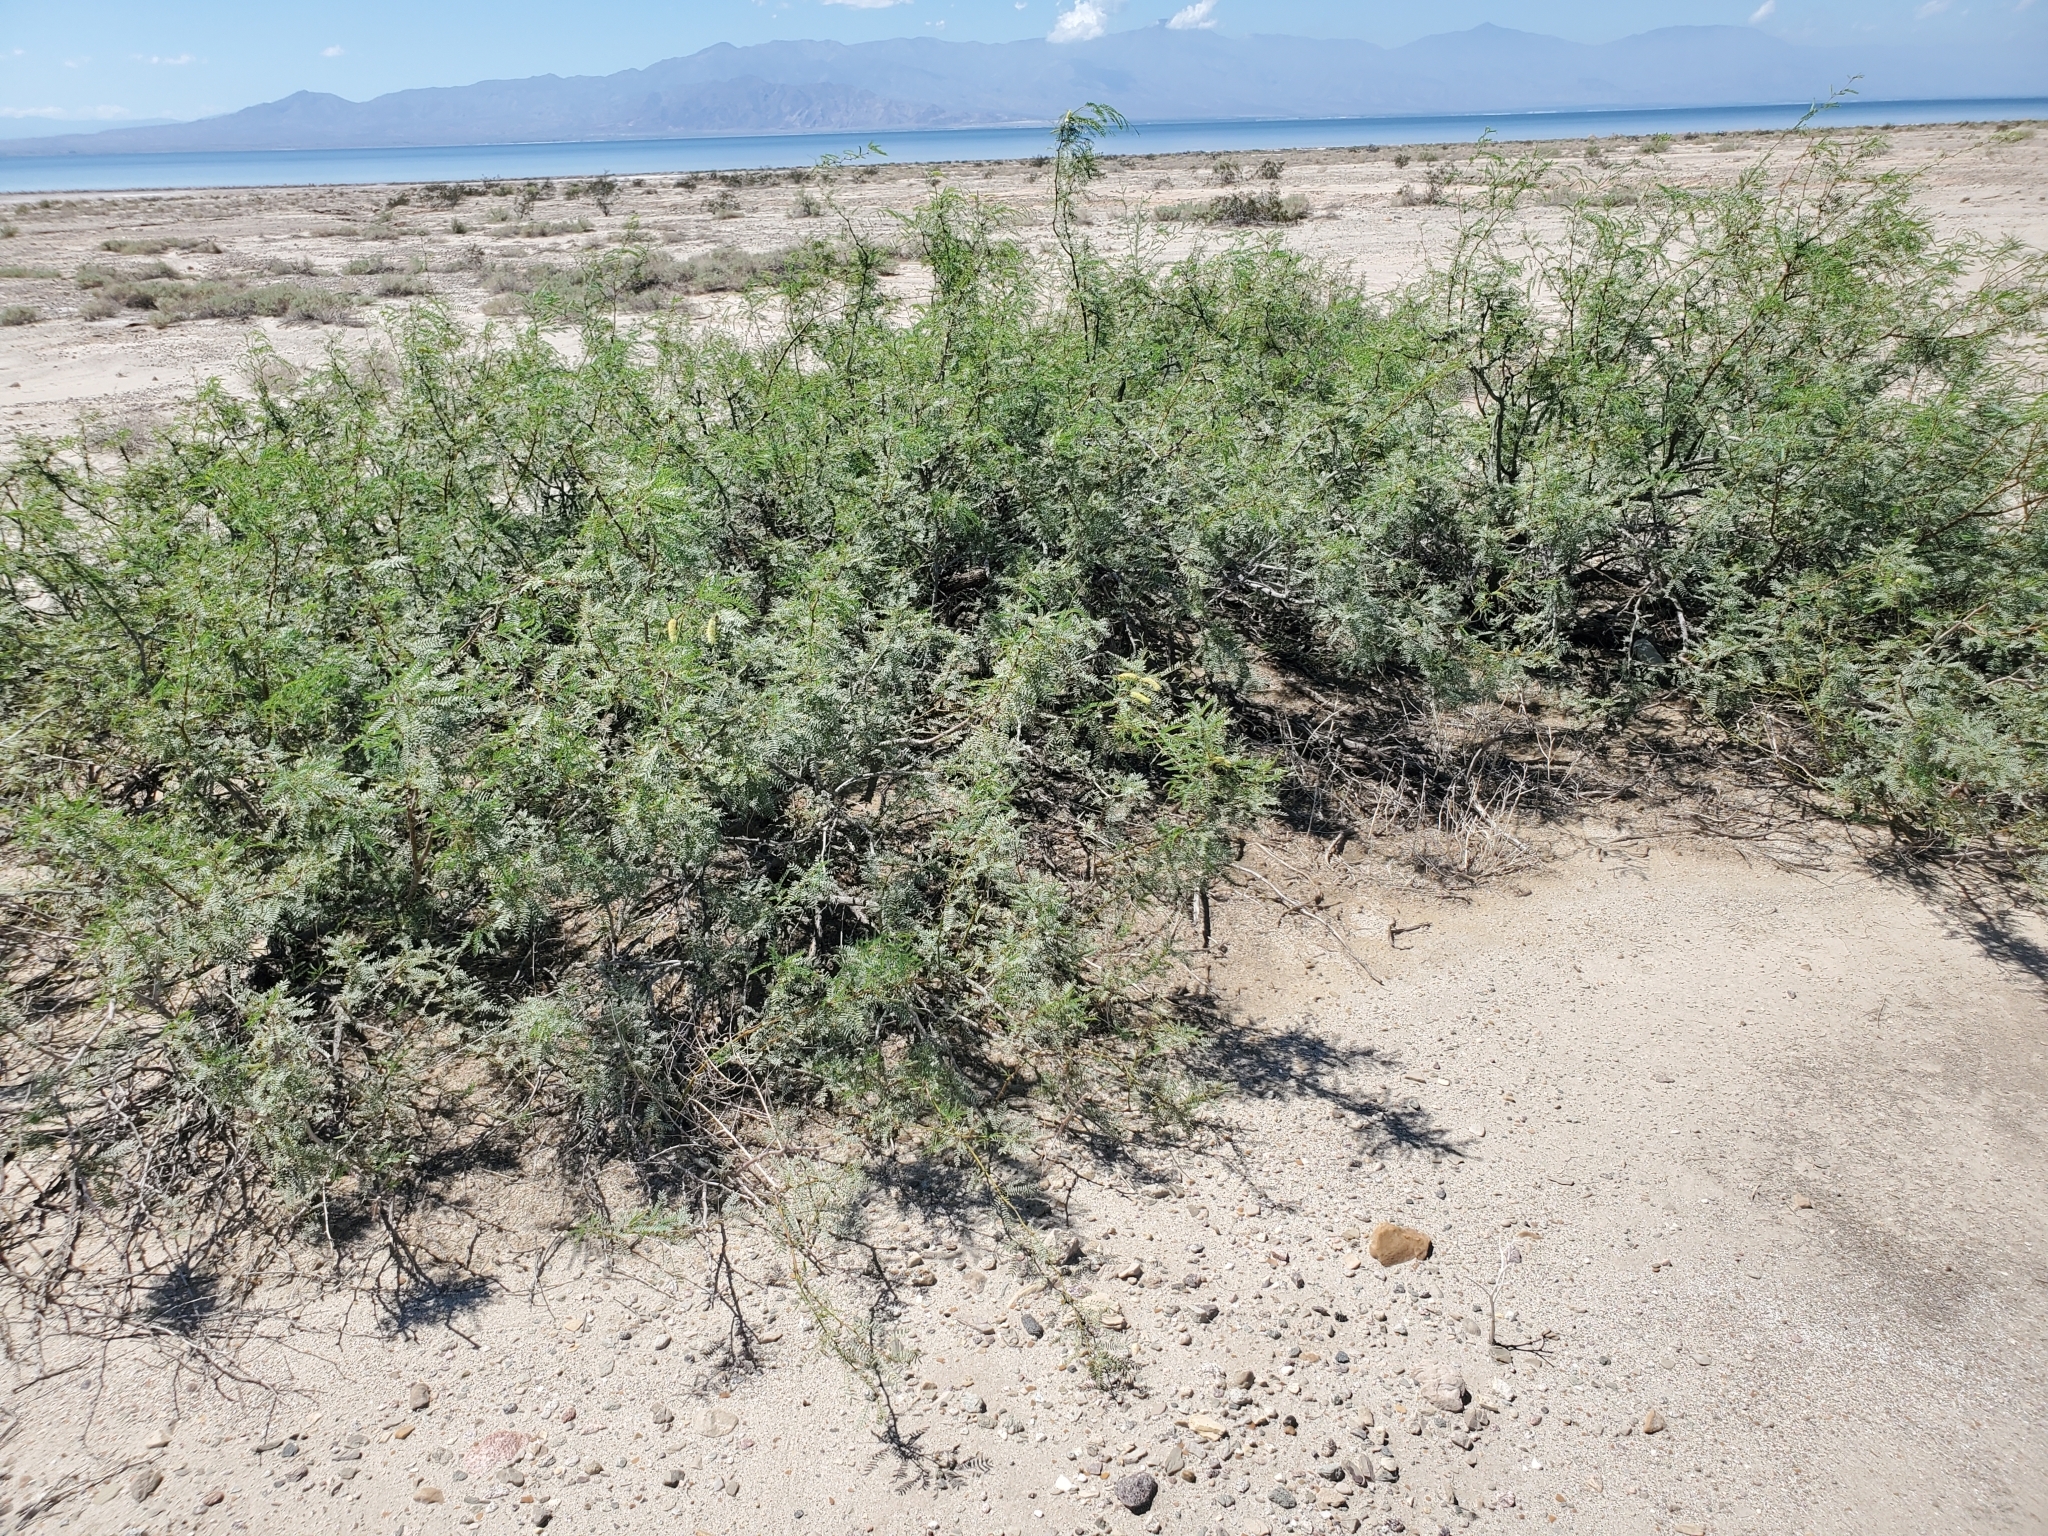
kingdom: Plantae
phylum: Tracheophyta
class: Magnoliopsida
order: Fabales
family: Fabaceae
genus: Prosopis
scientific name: Prosopis pubescens
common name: Screw-bean
